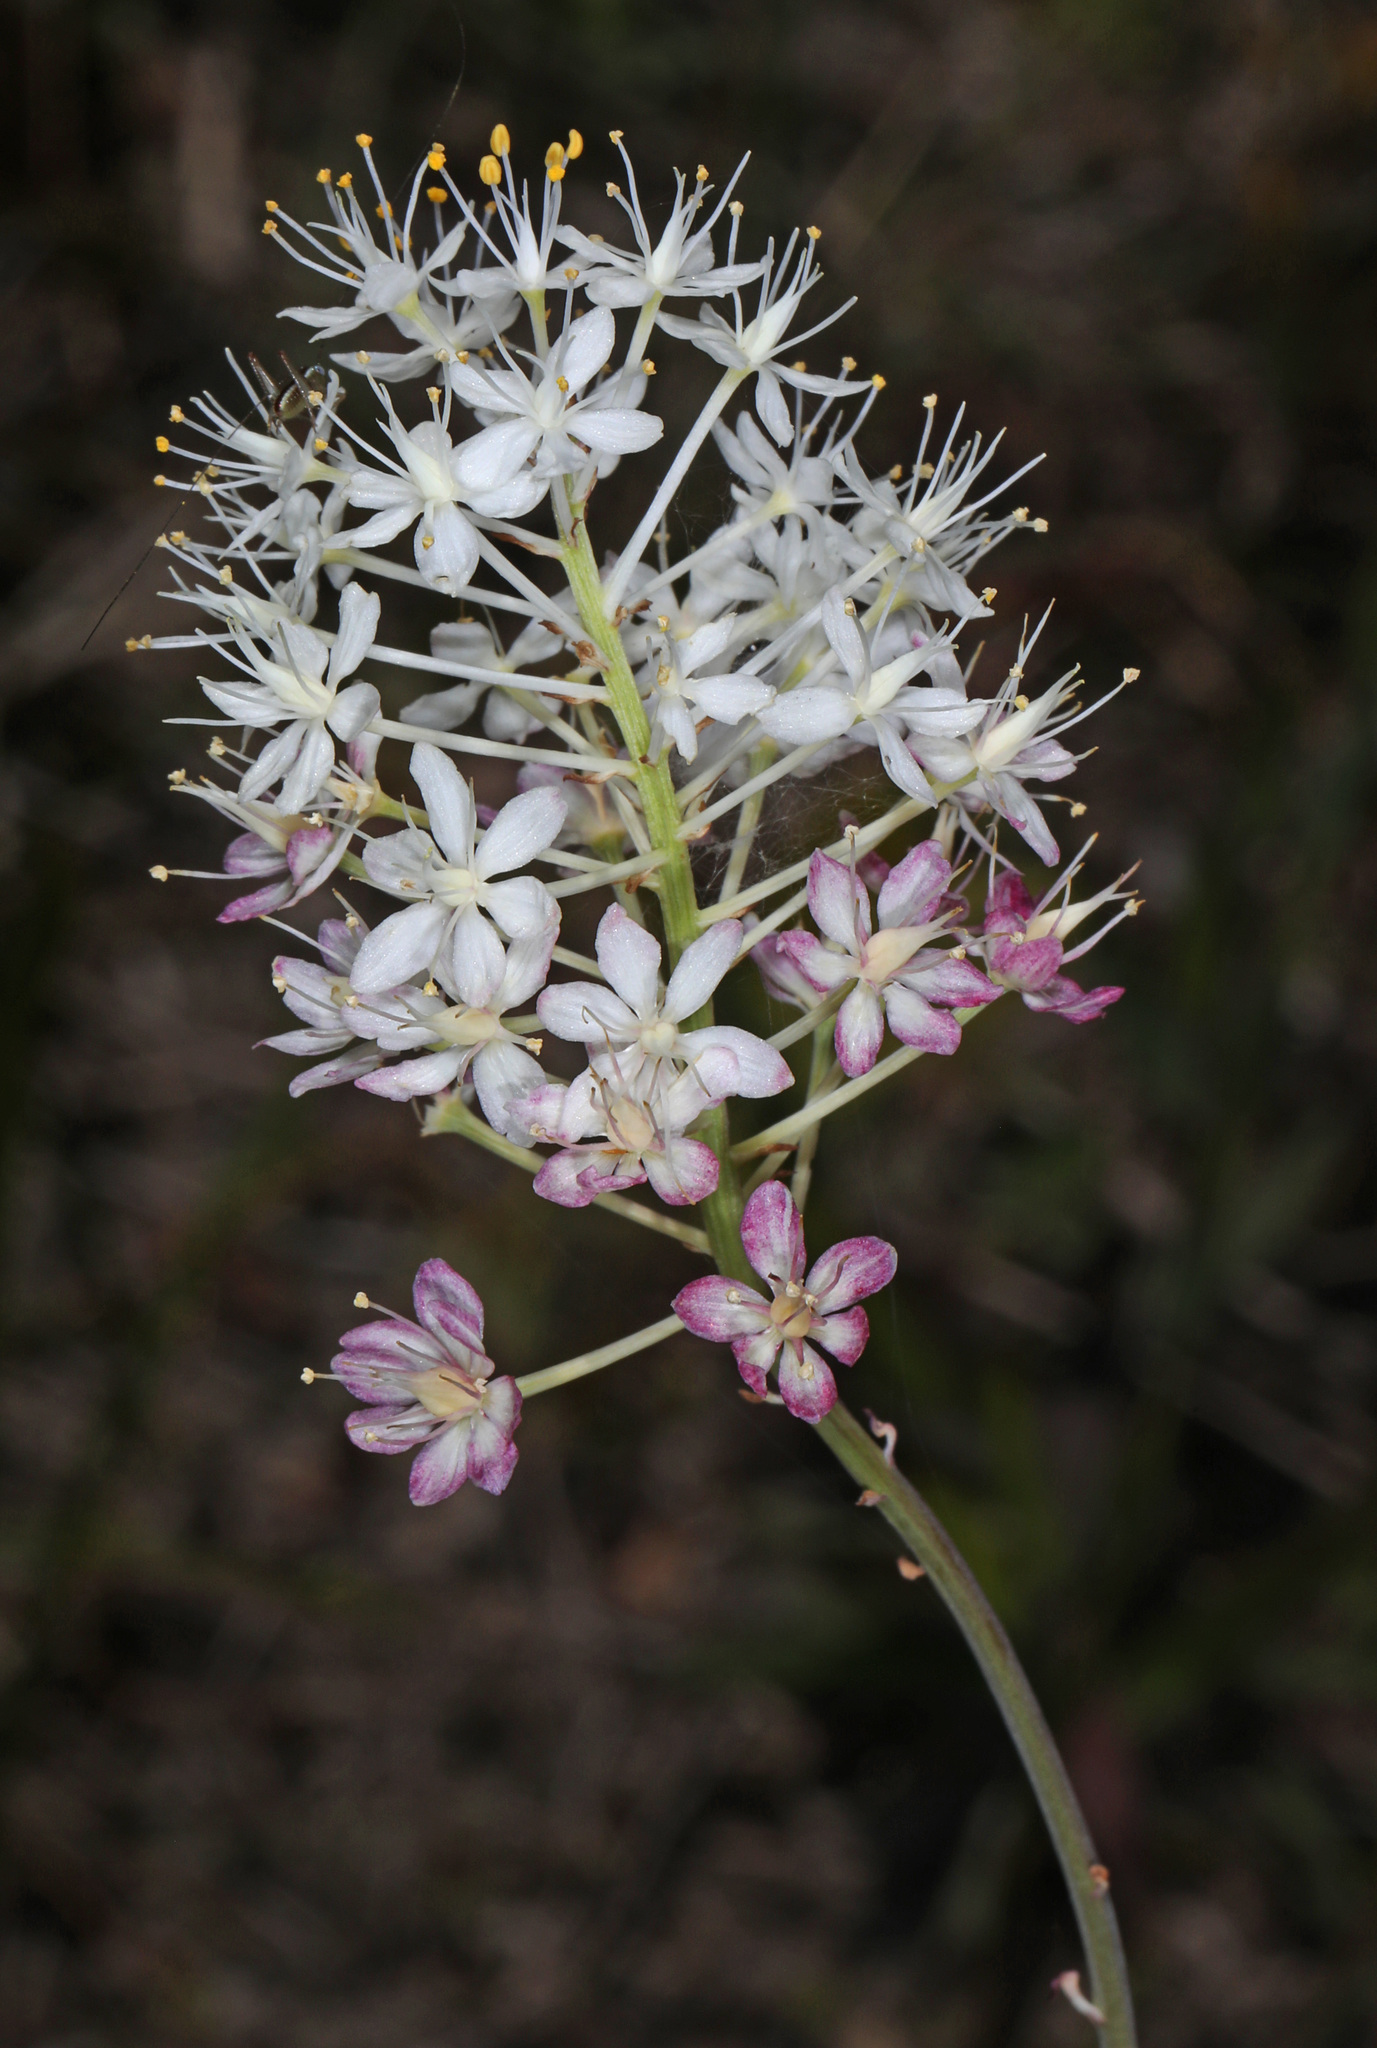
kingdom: Plantae
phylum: Tracheophyta
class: Liliopsida
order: Liliales
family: Melanthiaceae
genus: Stenanthium
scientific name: Stenanthium densum
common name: Crow-poison
